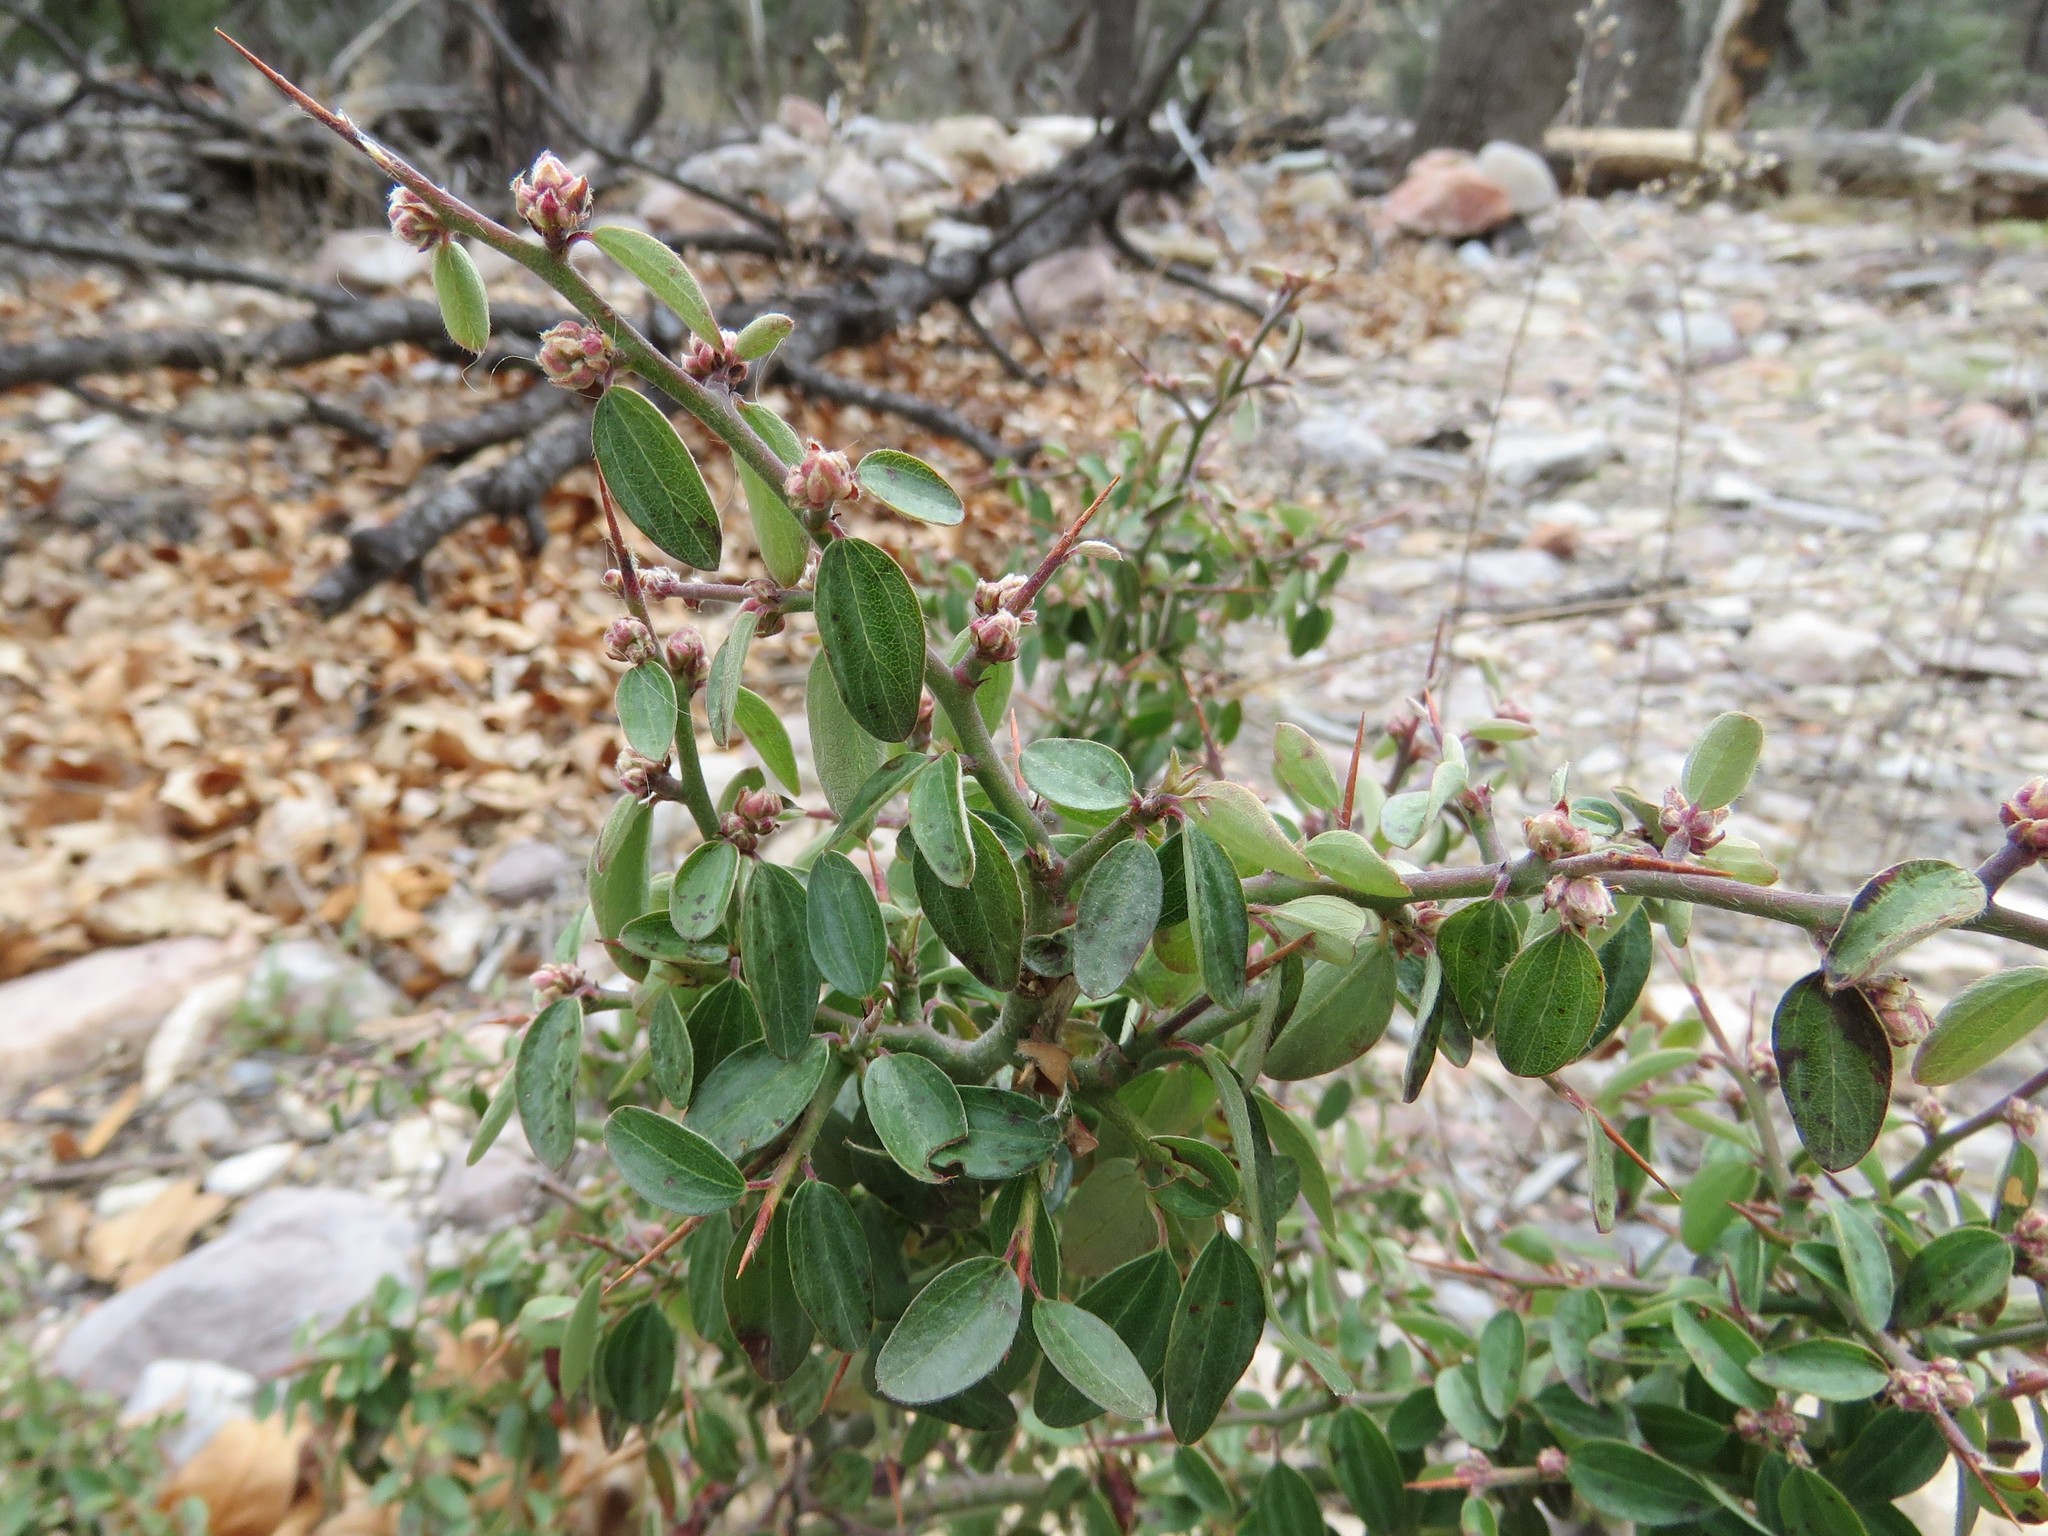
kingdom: Plantae
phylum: Tracheophyta
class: Magnoliopsida
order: Rosales
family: Rhamnaceae
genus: Ceanothus
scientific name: Ceanothus fendleri
